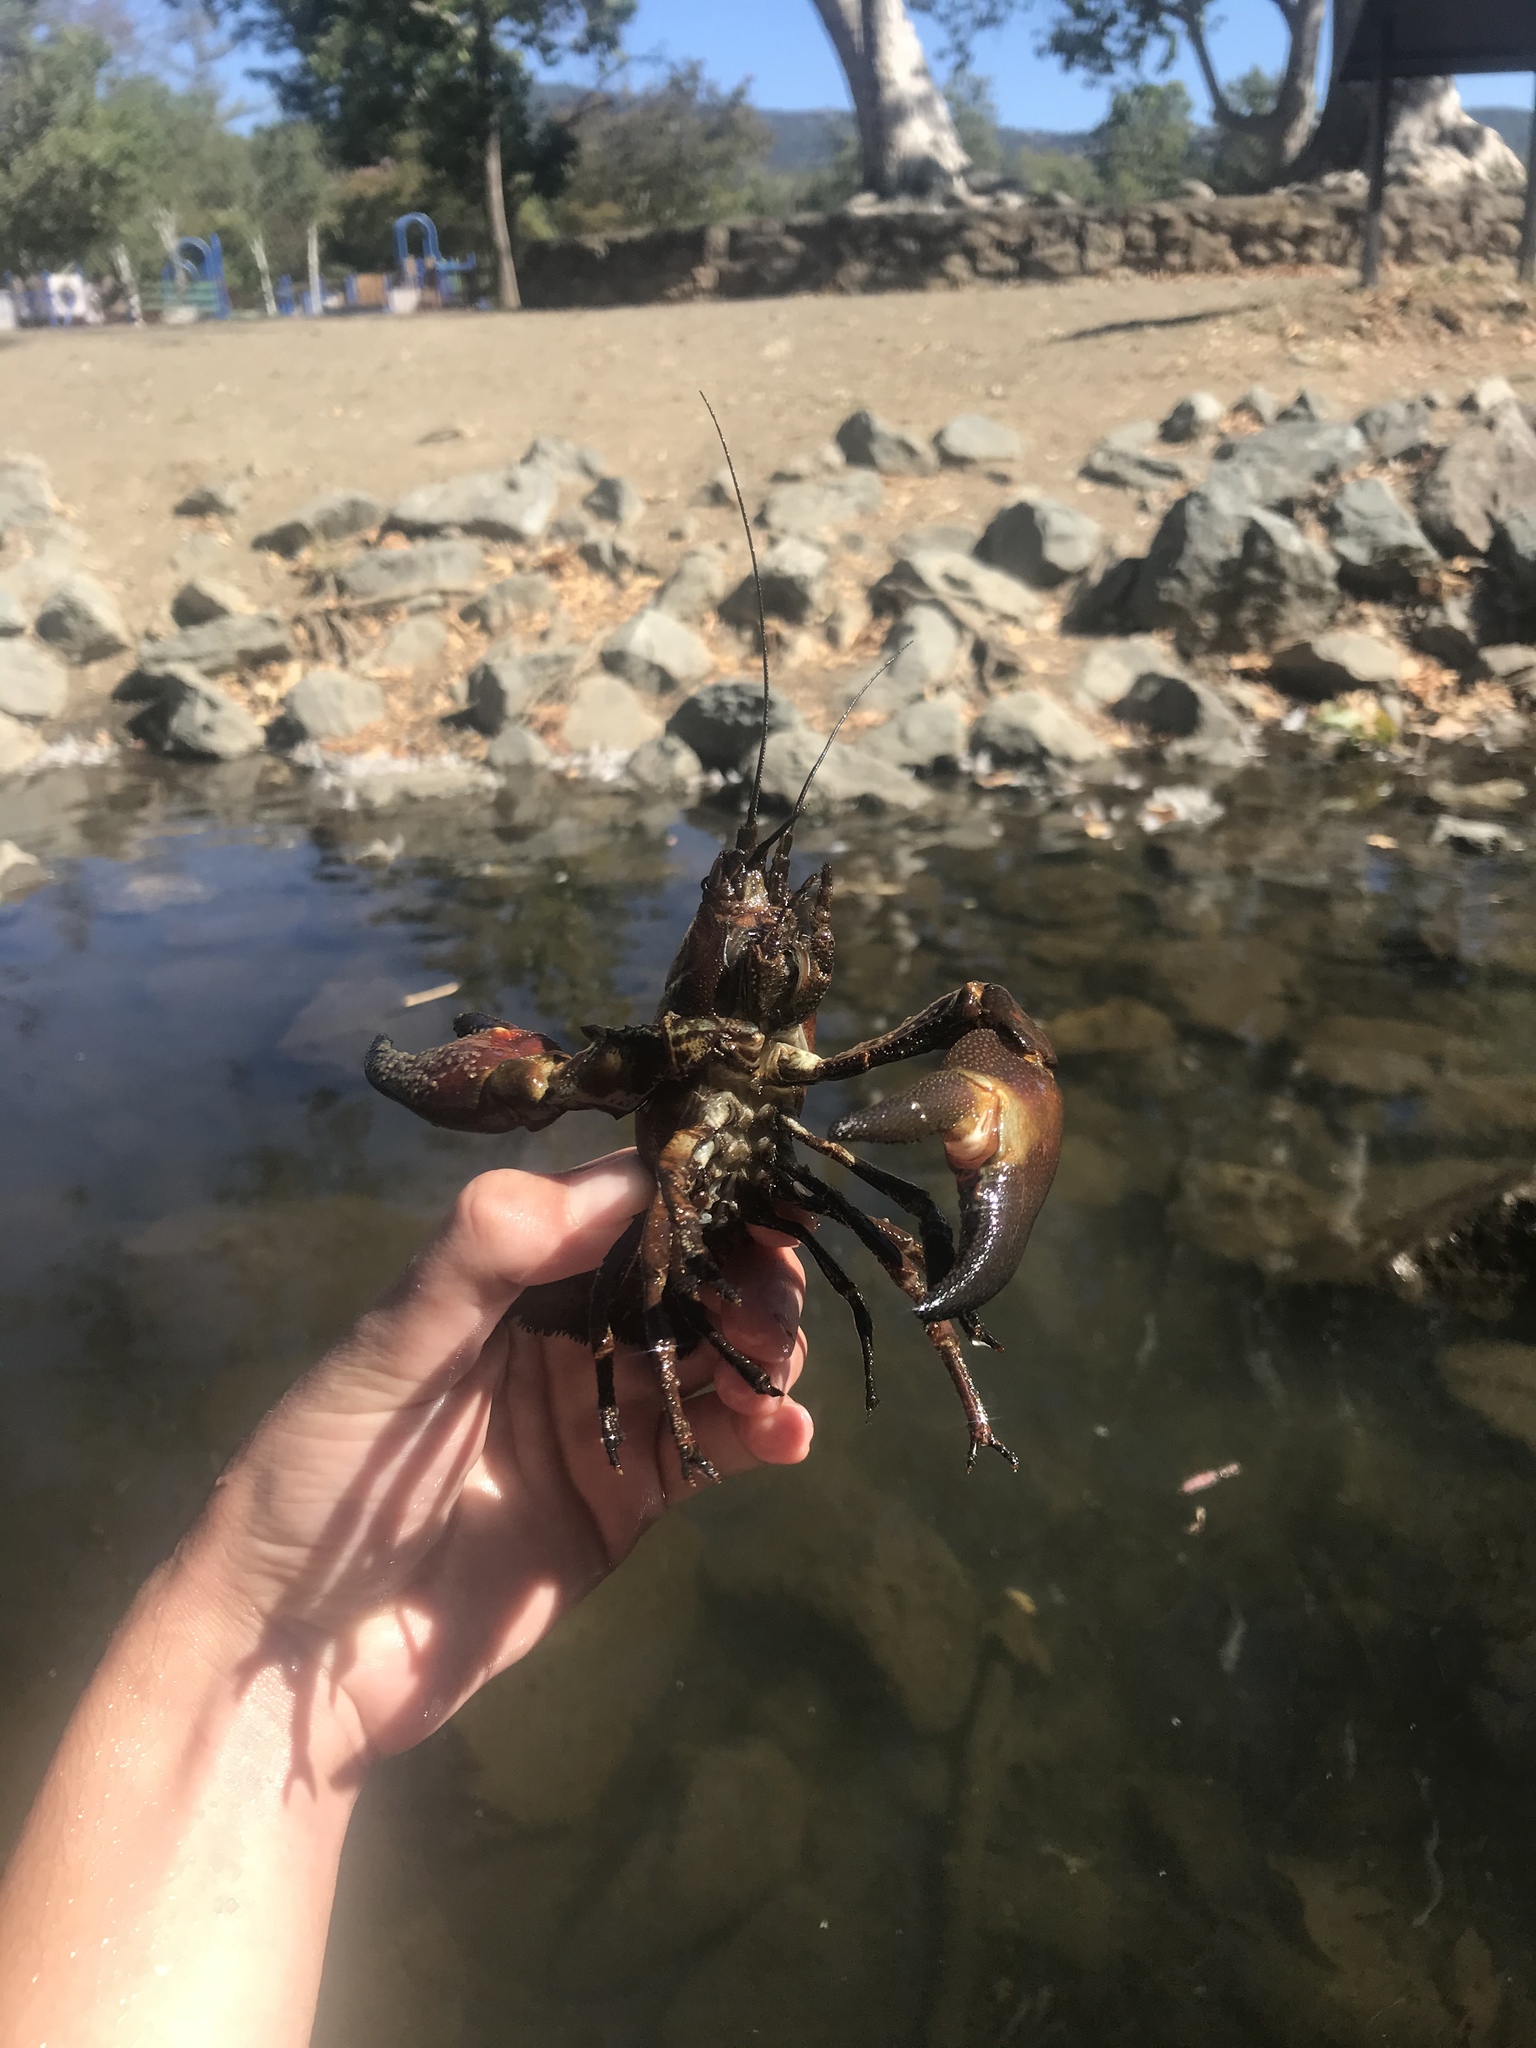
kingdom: Animalia
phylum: Arthropoda
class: Malacostraca
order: Decapoda
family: Astacidae
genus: Pacifastacus
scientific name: Pacifastacus leniusculus
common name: Signal crayfish
